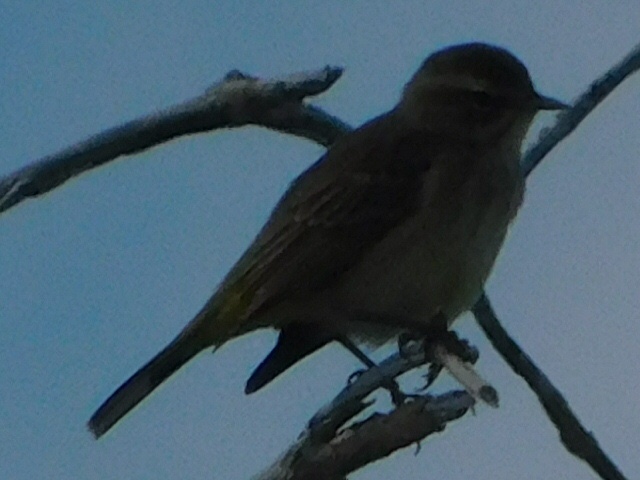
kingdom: Animalia
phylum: Chordata
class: Aves
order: Passeriformes
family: Parulidae
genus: Setophaga
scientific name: Setophaga palmarum
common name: Palm warbler
